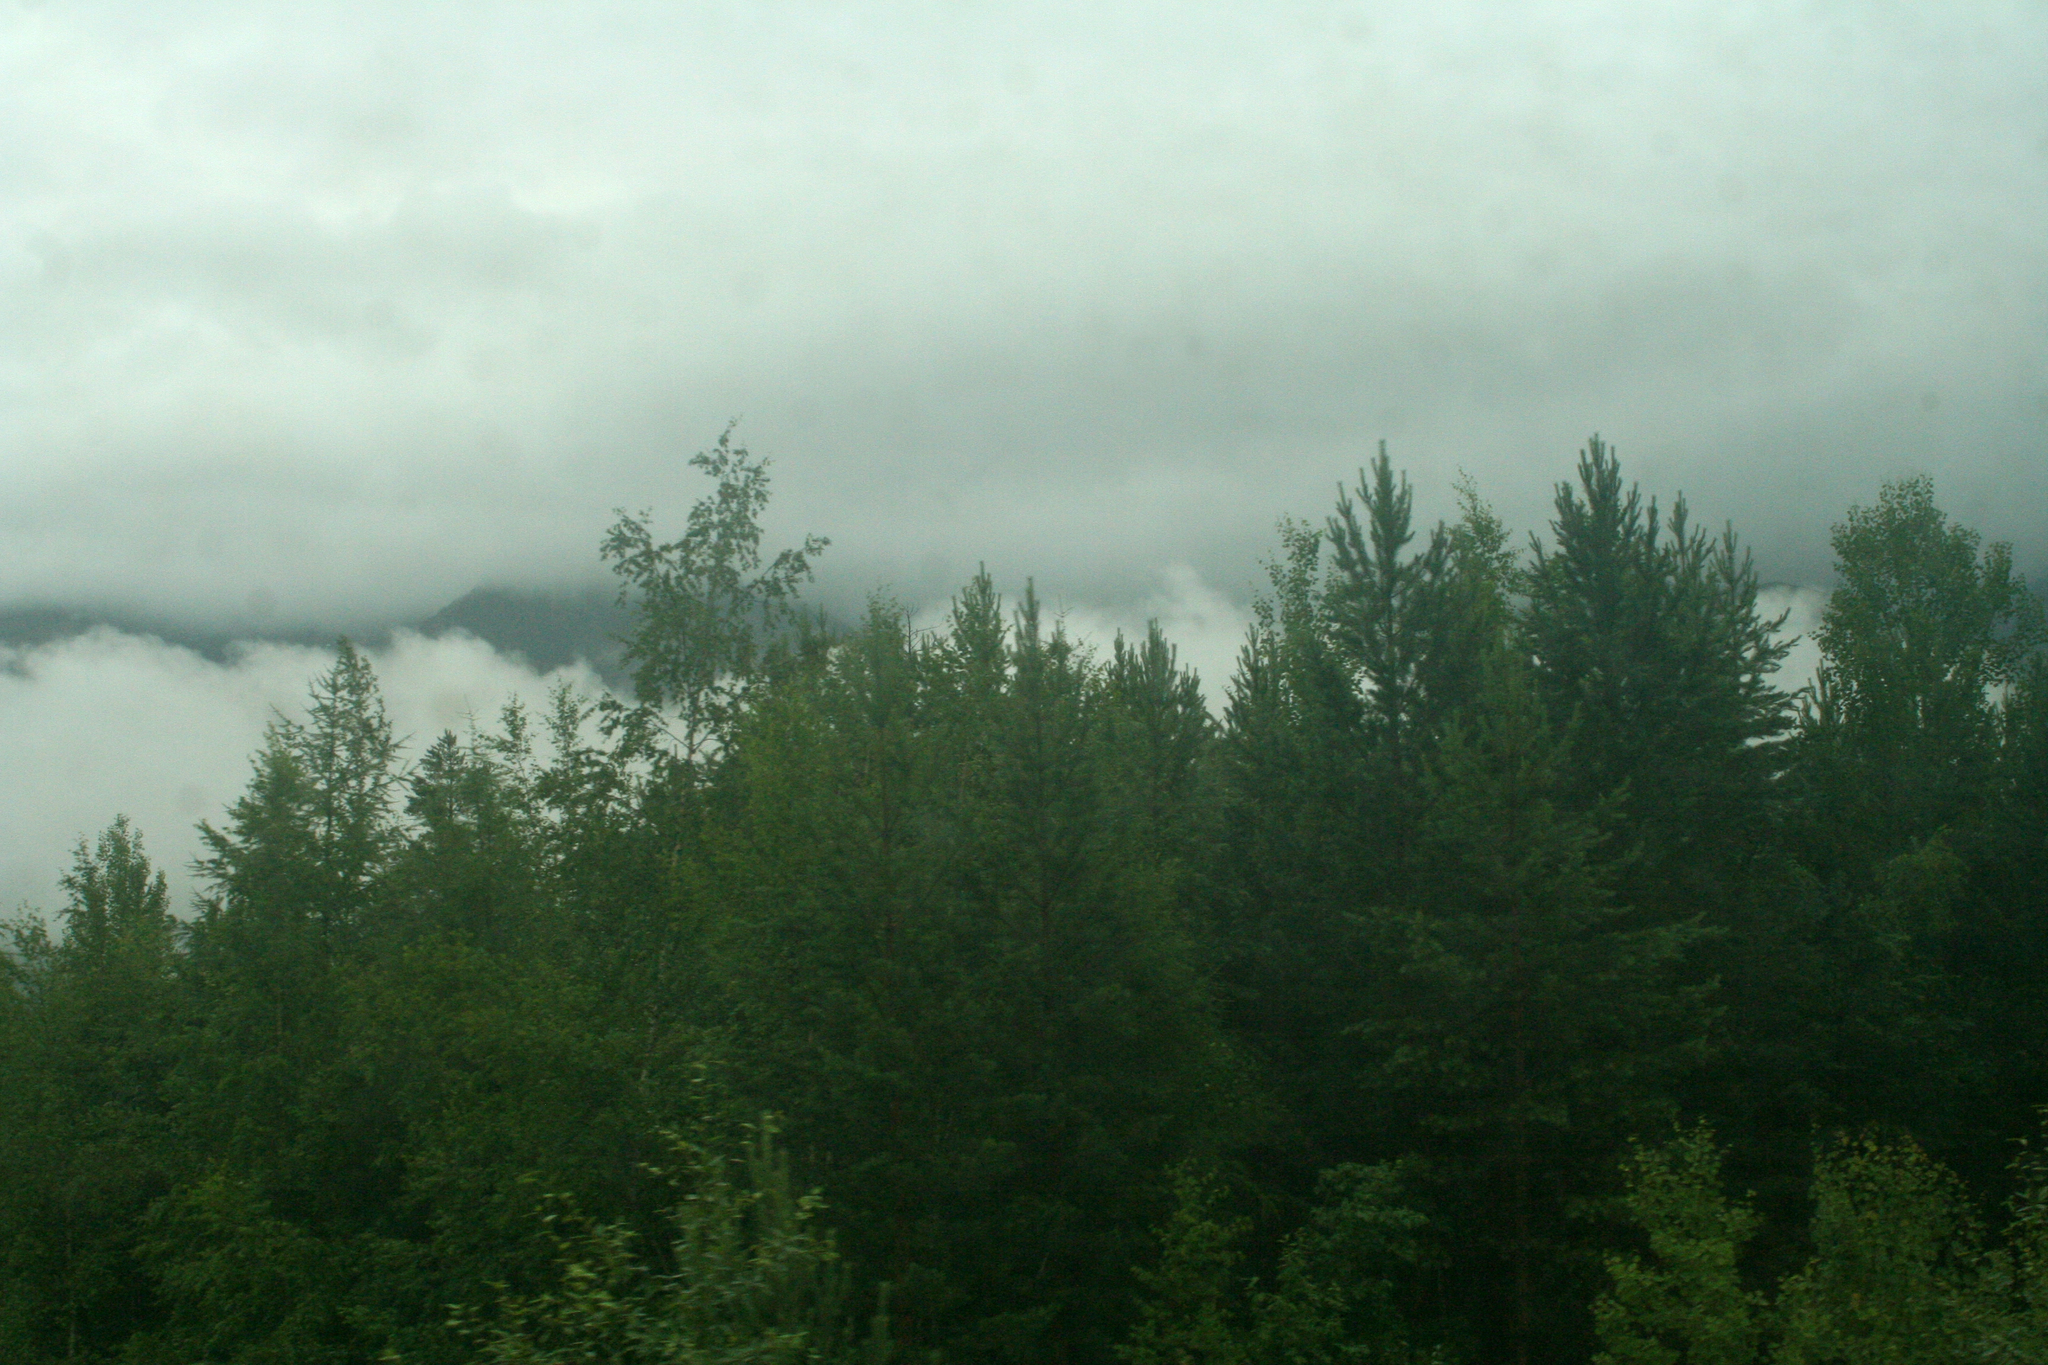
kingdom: Plantae
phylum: Tracheophyta
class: Pinopsida
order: Pinales
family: Pinaceae
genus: Larix
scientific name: Larix gmelinii
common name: Dahurian larch
